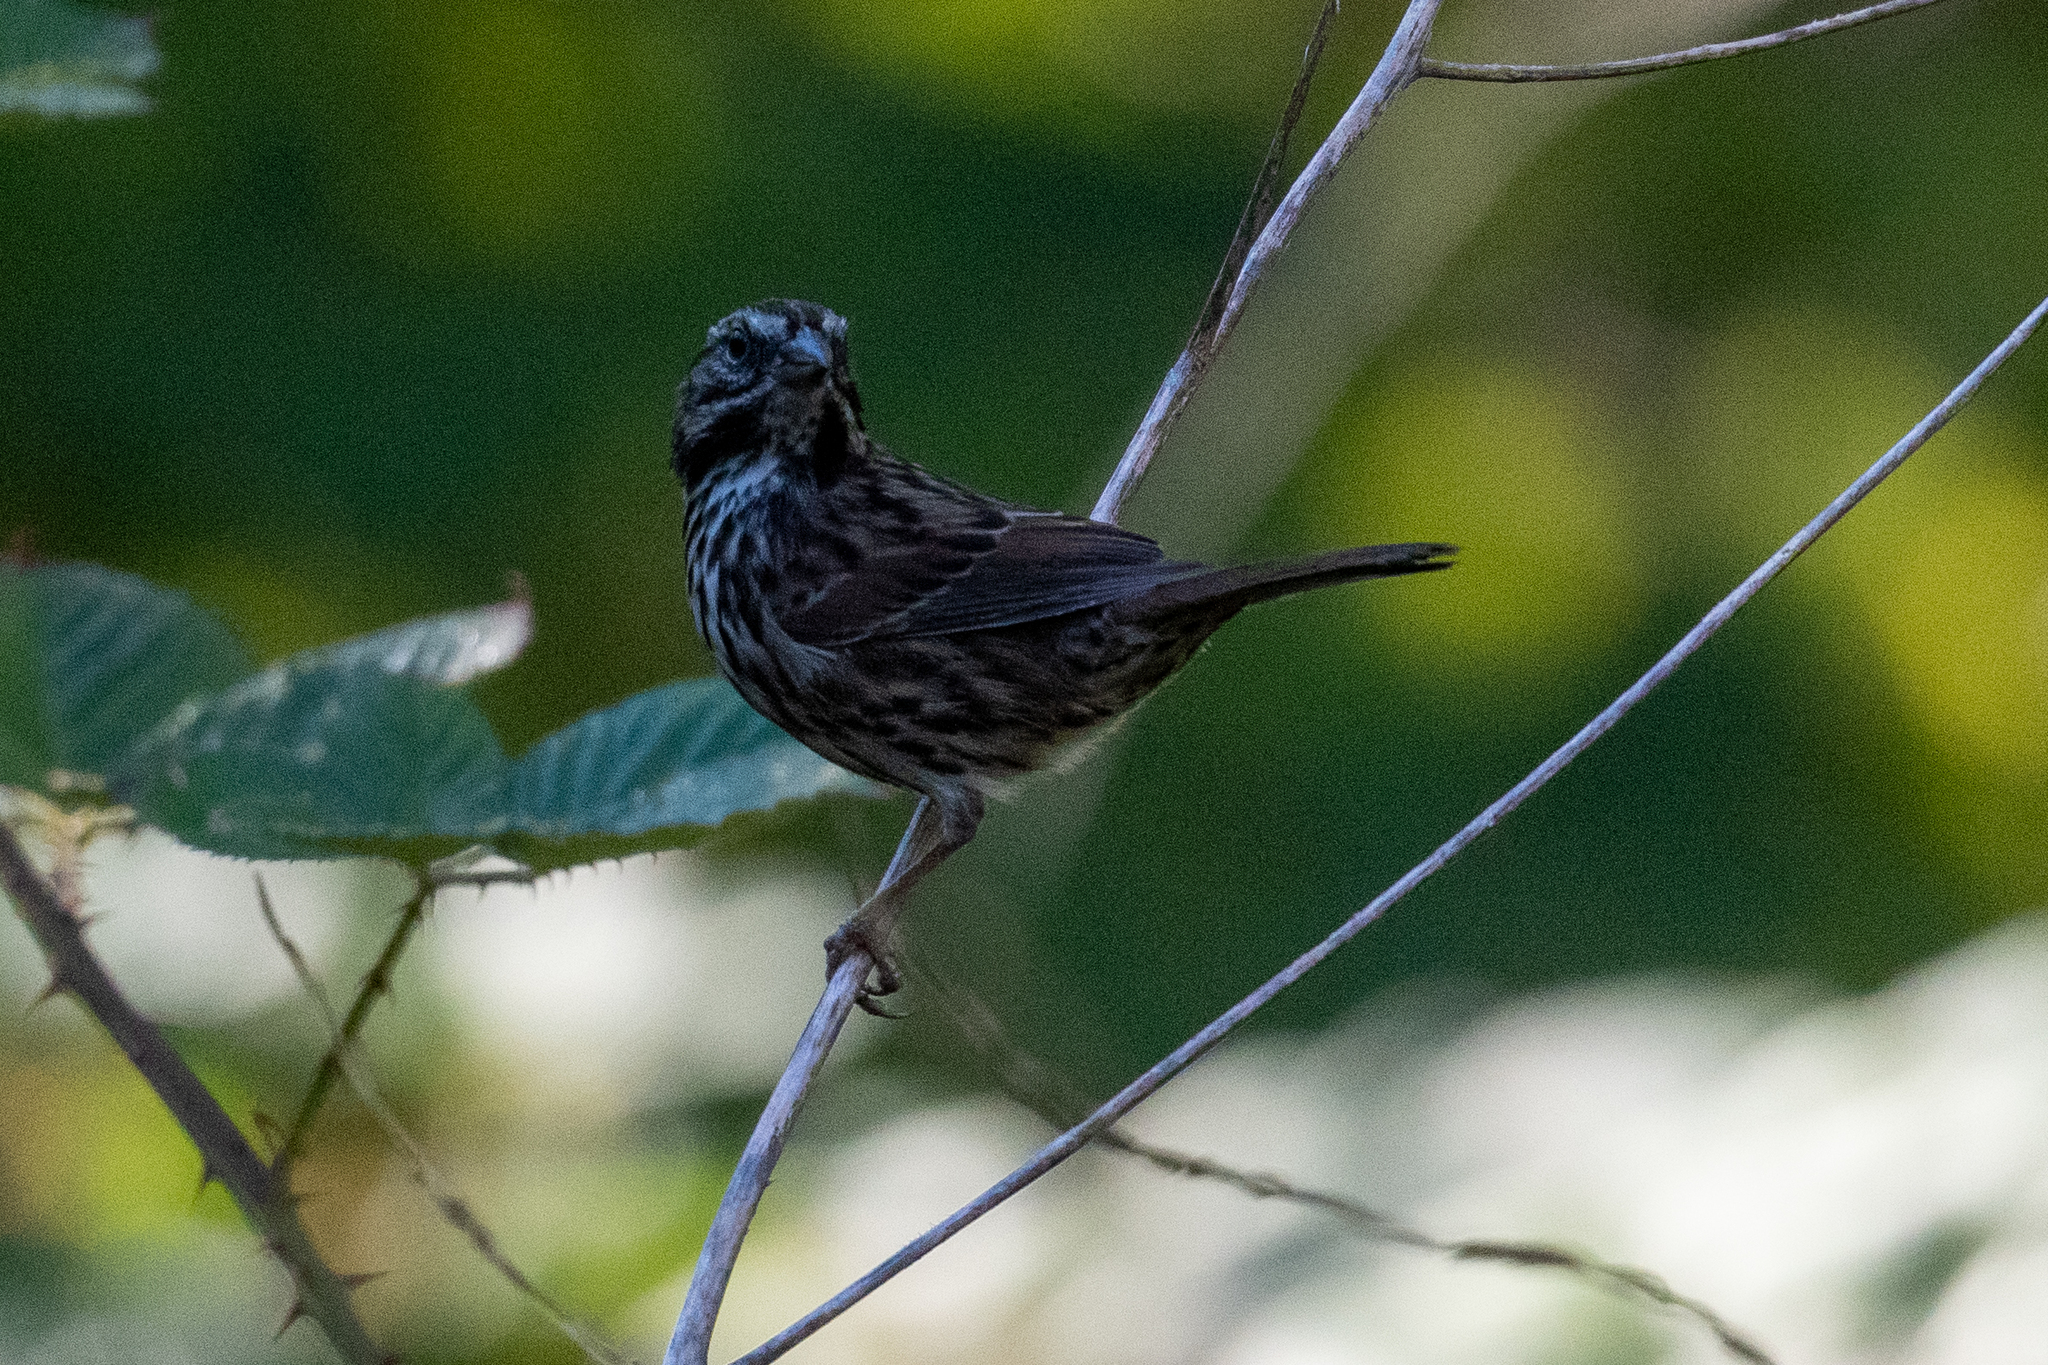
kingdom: Animalia
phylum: Chordata
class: Aves
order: Passeriformes
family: Passerellidae
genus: Melospiza
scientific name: Melospiza melodia
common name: Song sparrow
